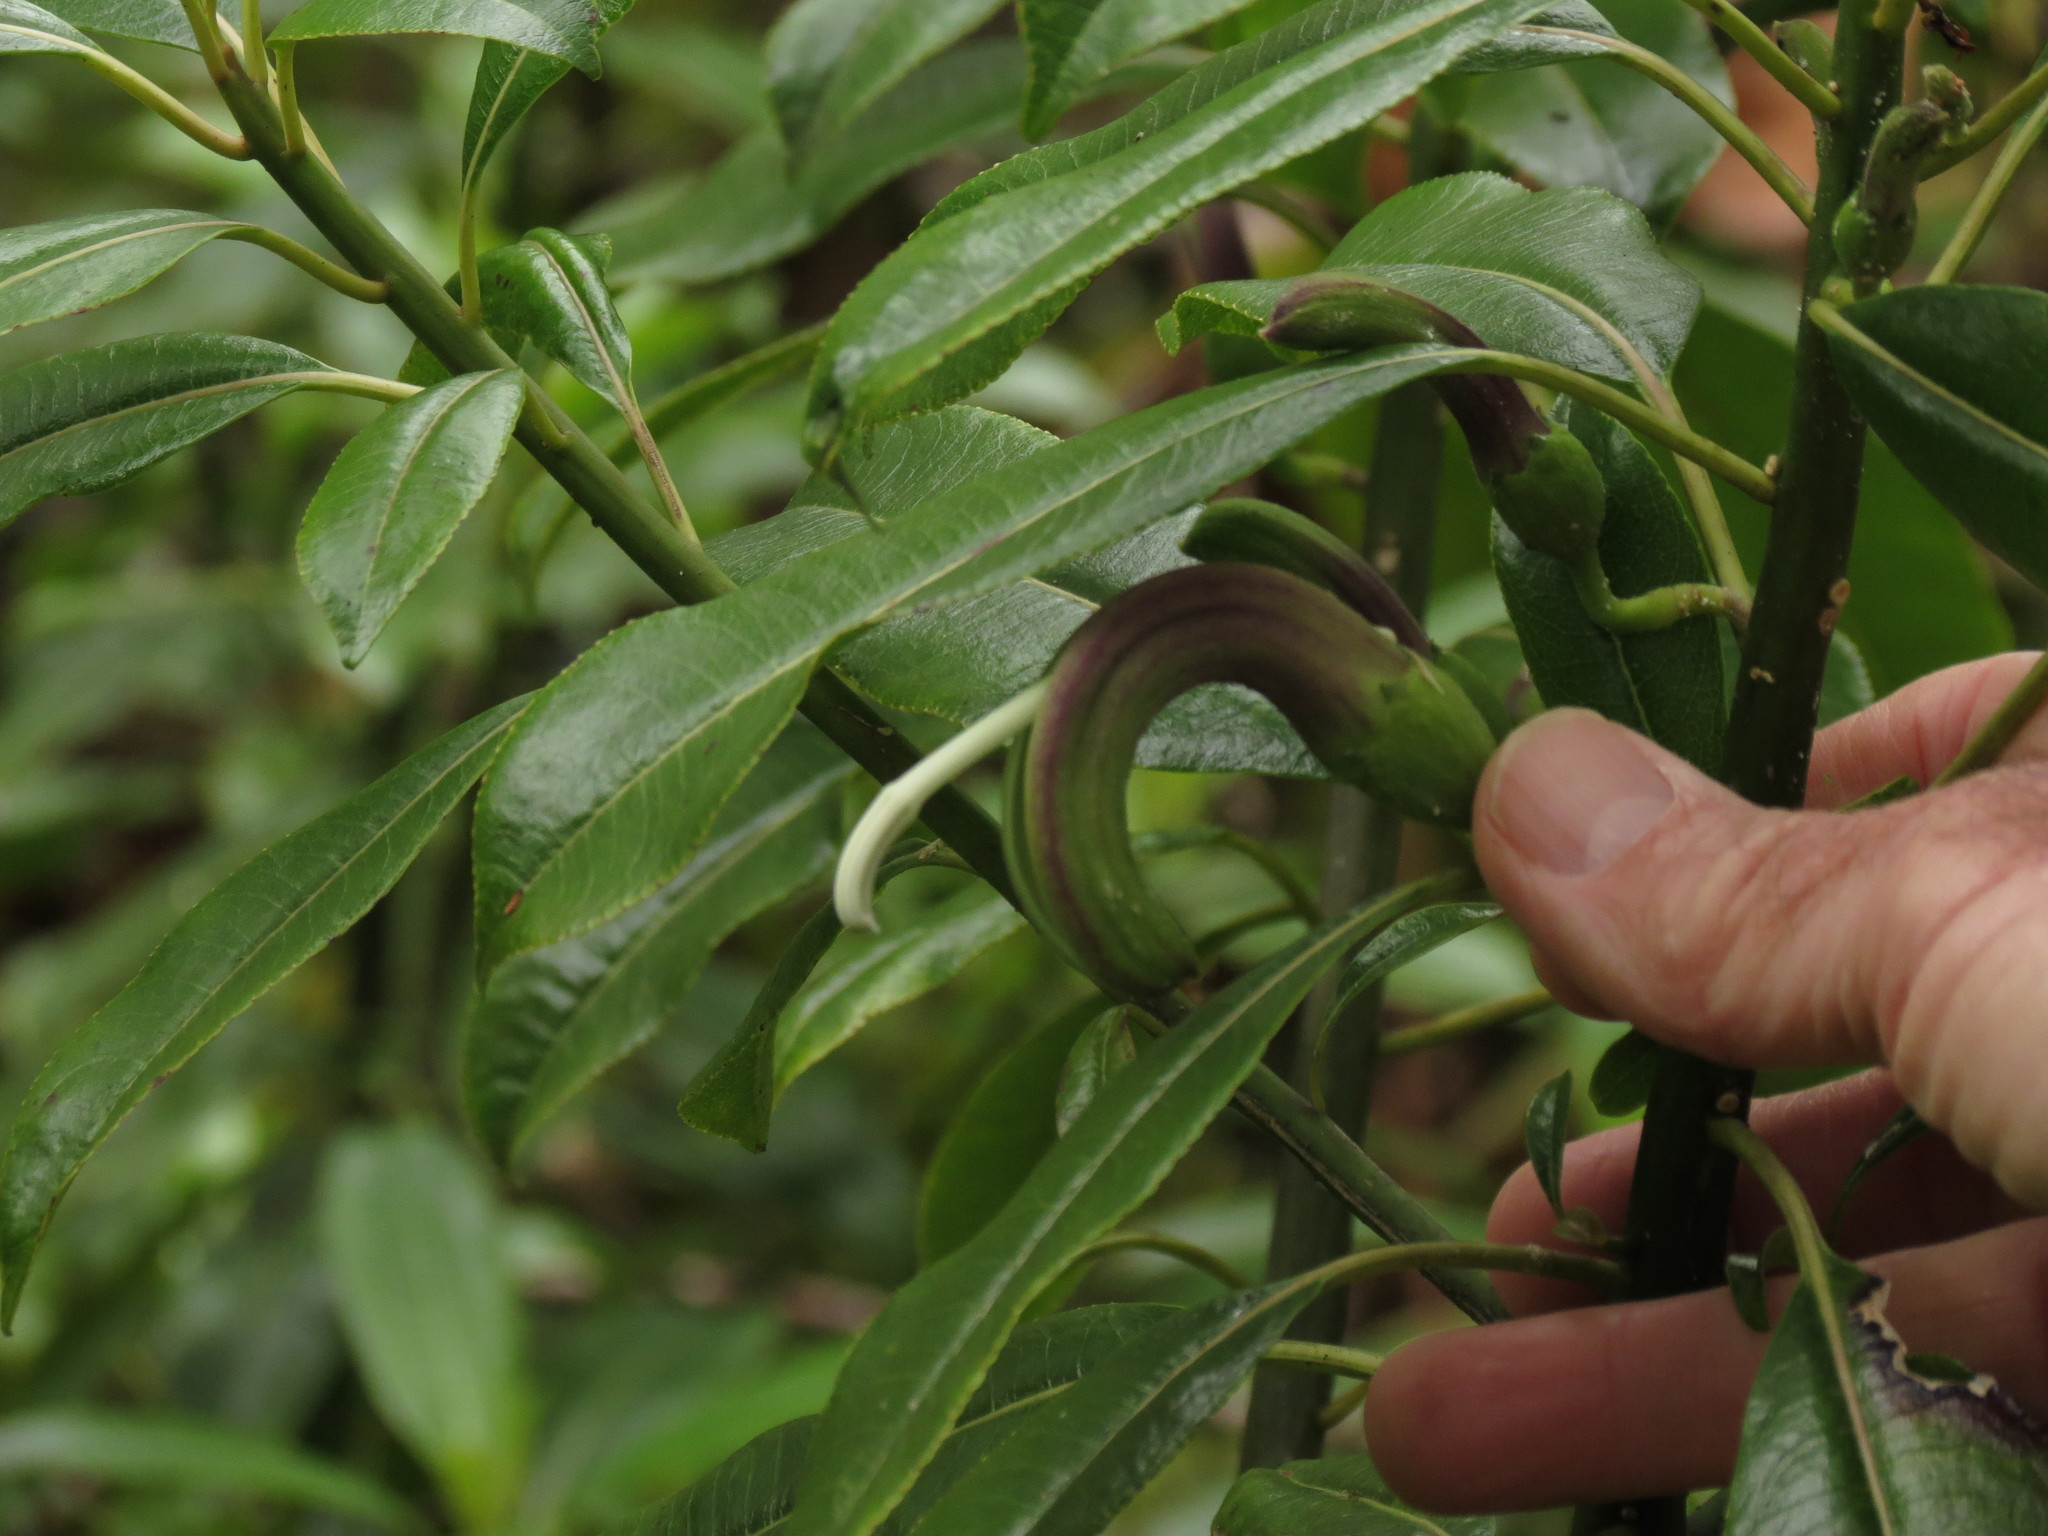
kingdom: Plantae
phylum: Tracheophyta
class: Magnoliopsida
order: Asterales
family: Campanulaceae
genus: Clermontia
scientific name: Clermontia fauriei
